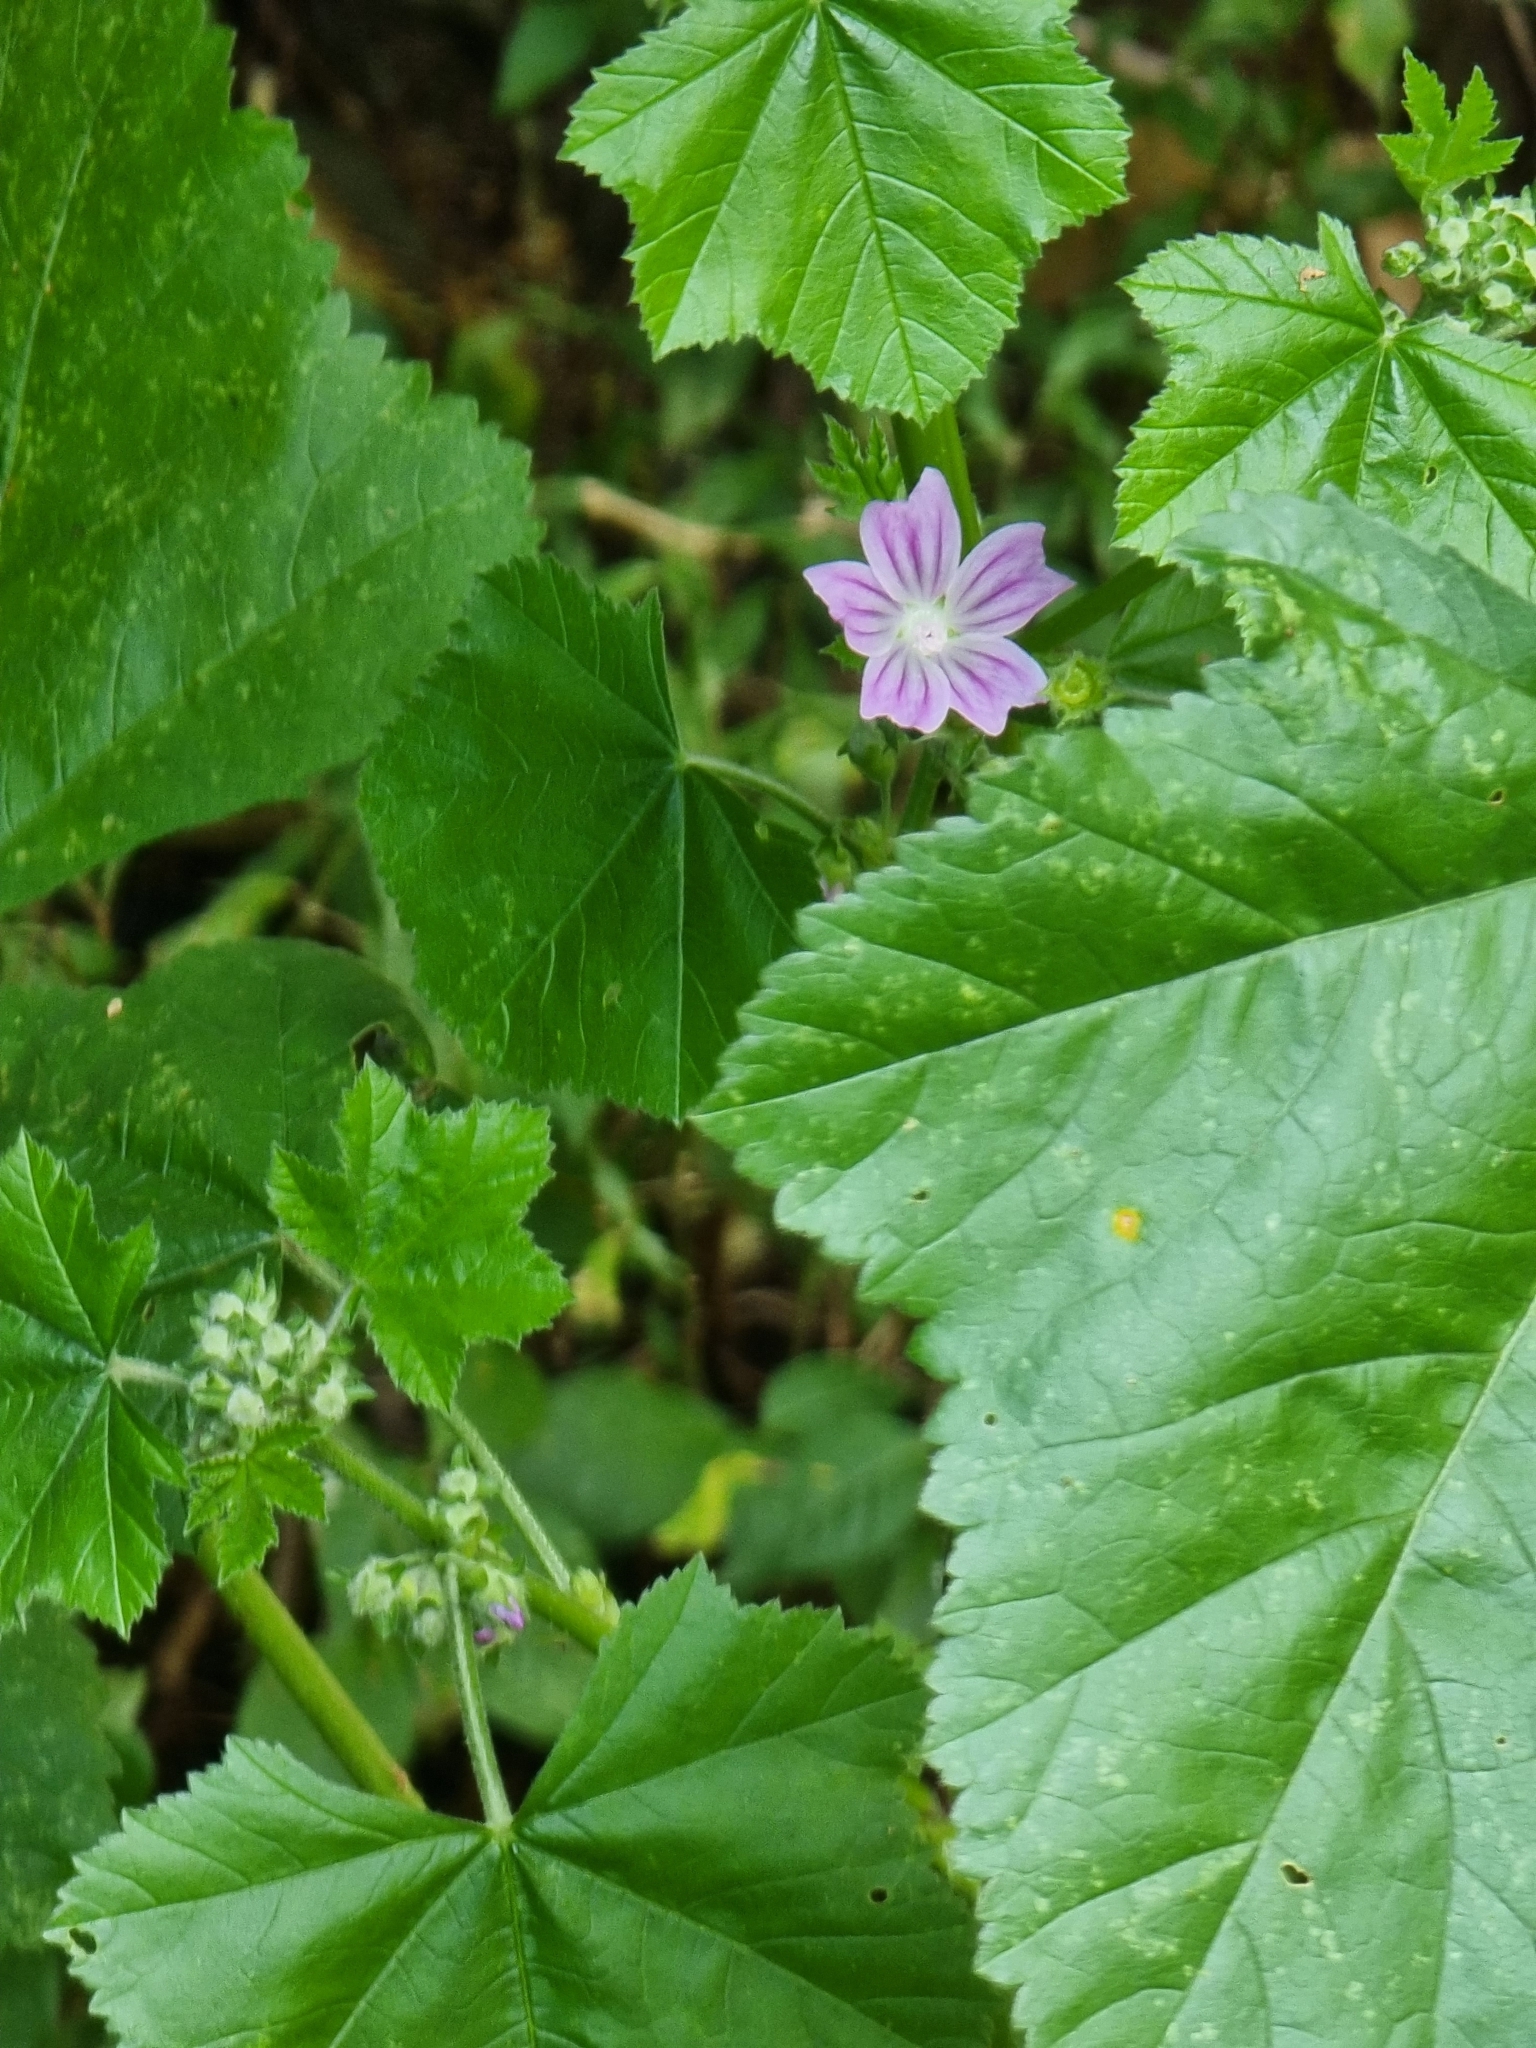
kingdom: Plantae
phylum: Tracheophyta
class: Magnoliopsida
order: Malvales
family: Malvaceae
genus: Malva
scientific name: Malva multiflora
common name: Cheeseweed
